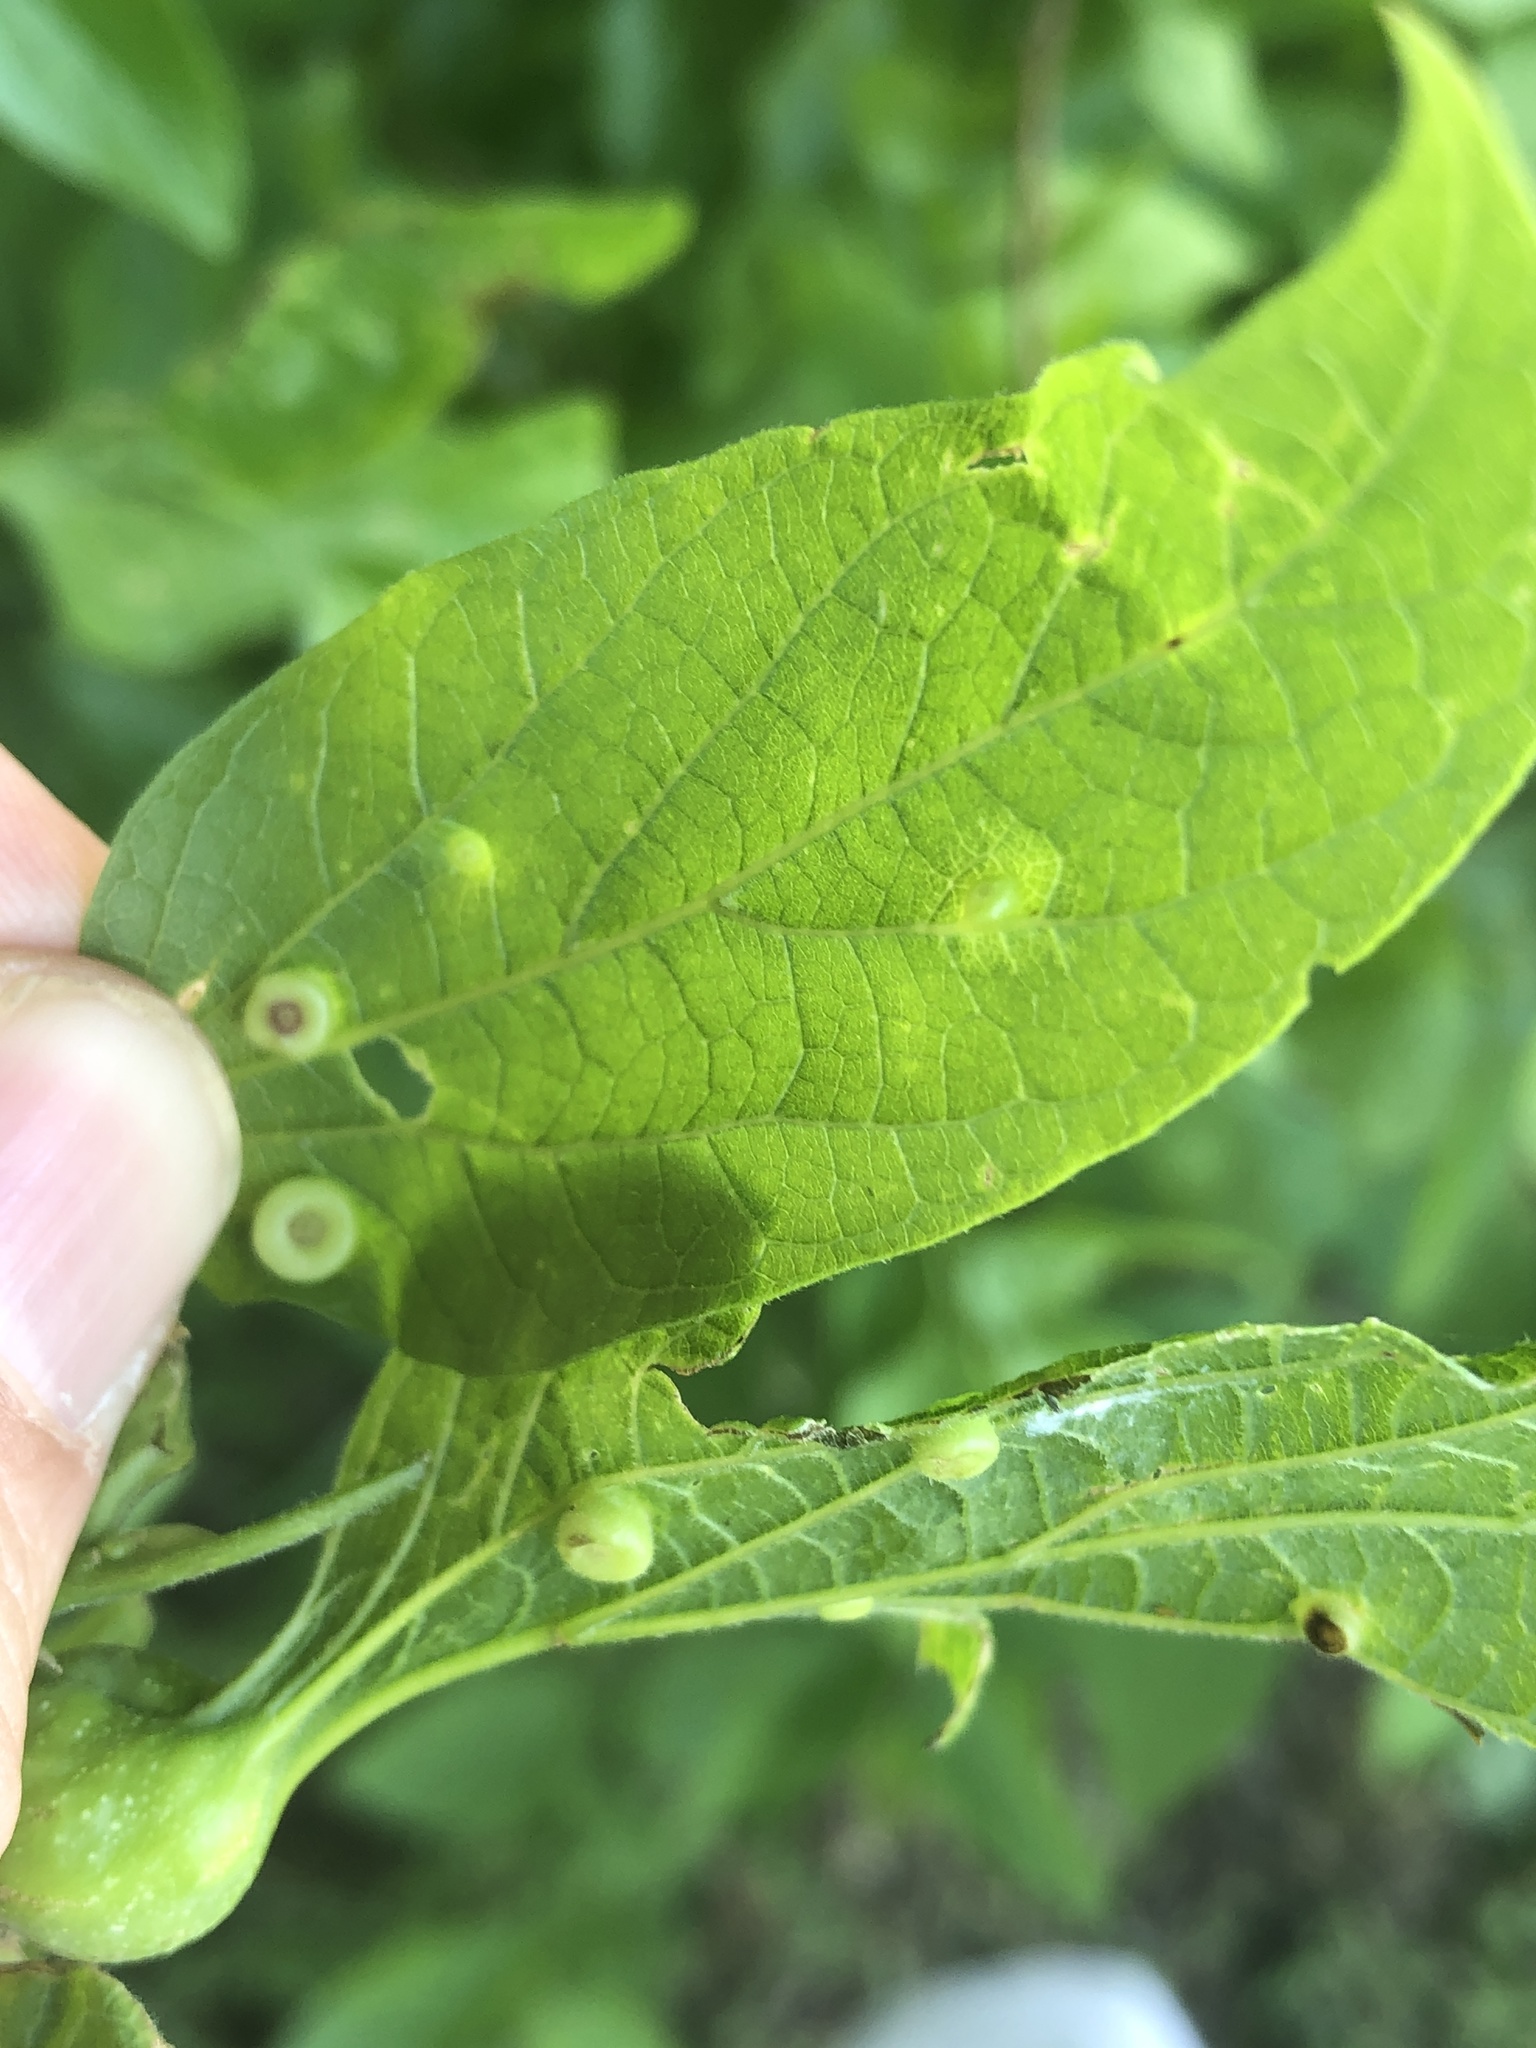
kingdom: Animalia
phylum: Arthropoda
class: Insecta
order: Hemiptera
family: Aphalaridae
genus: Pachypsylla
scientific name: Pachypsylla celtidismamma
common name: Hackberry nipplegall psyllid
